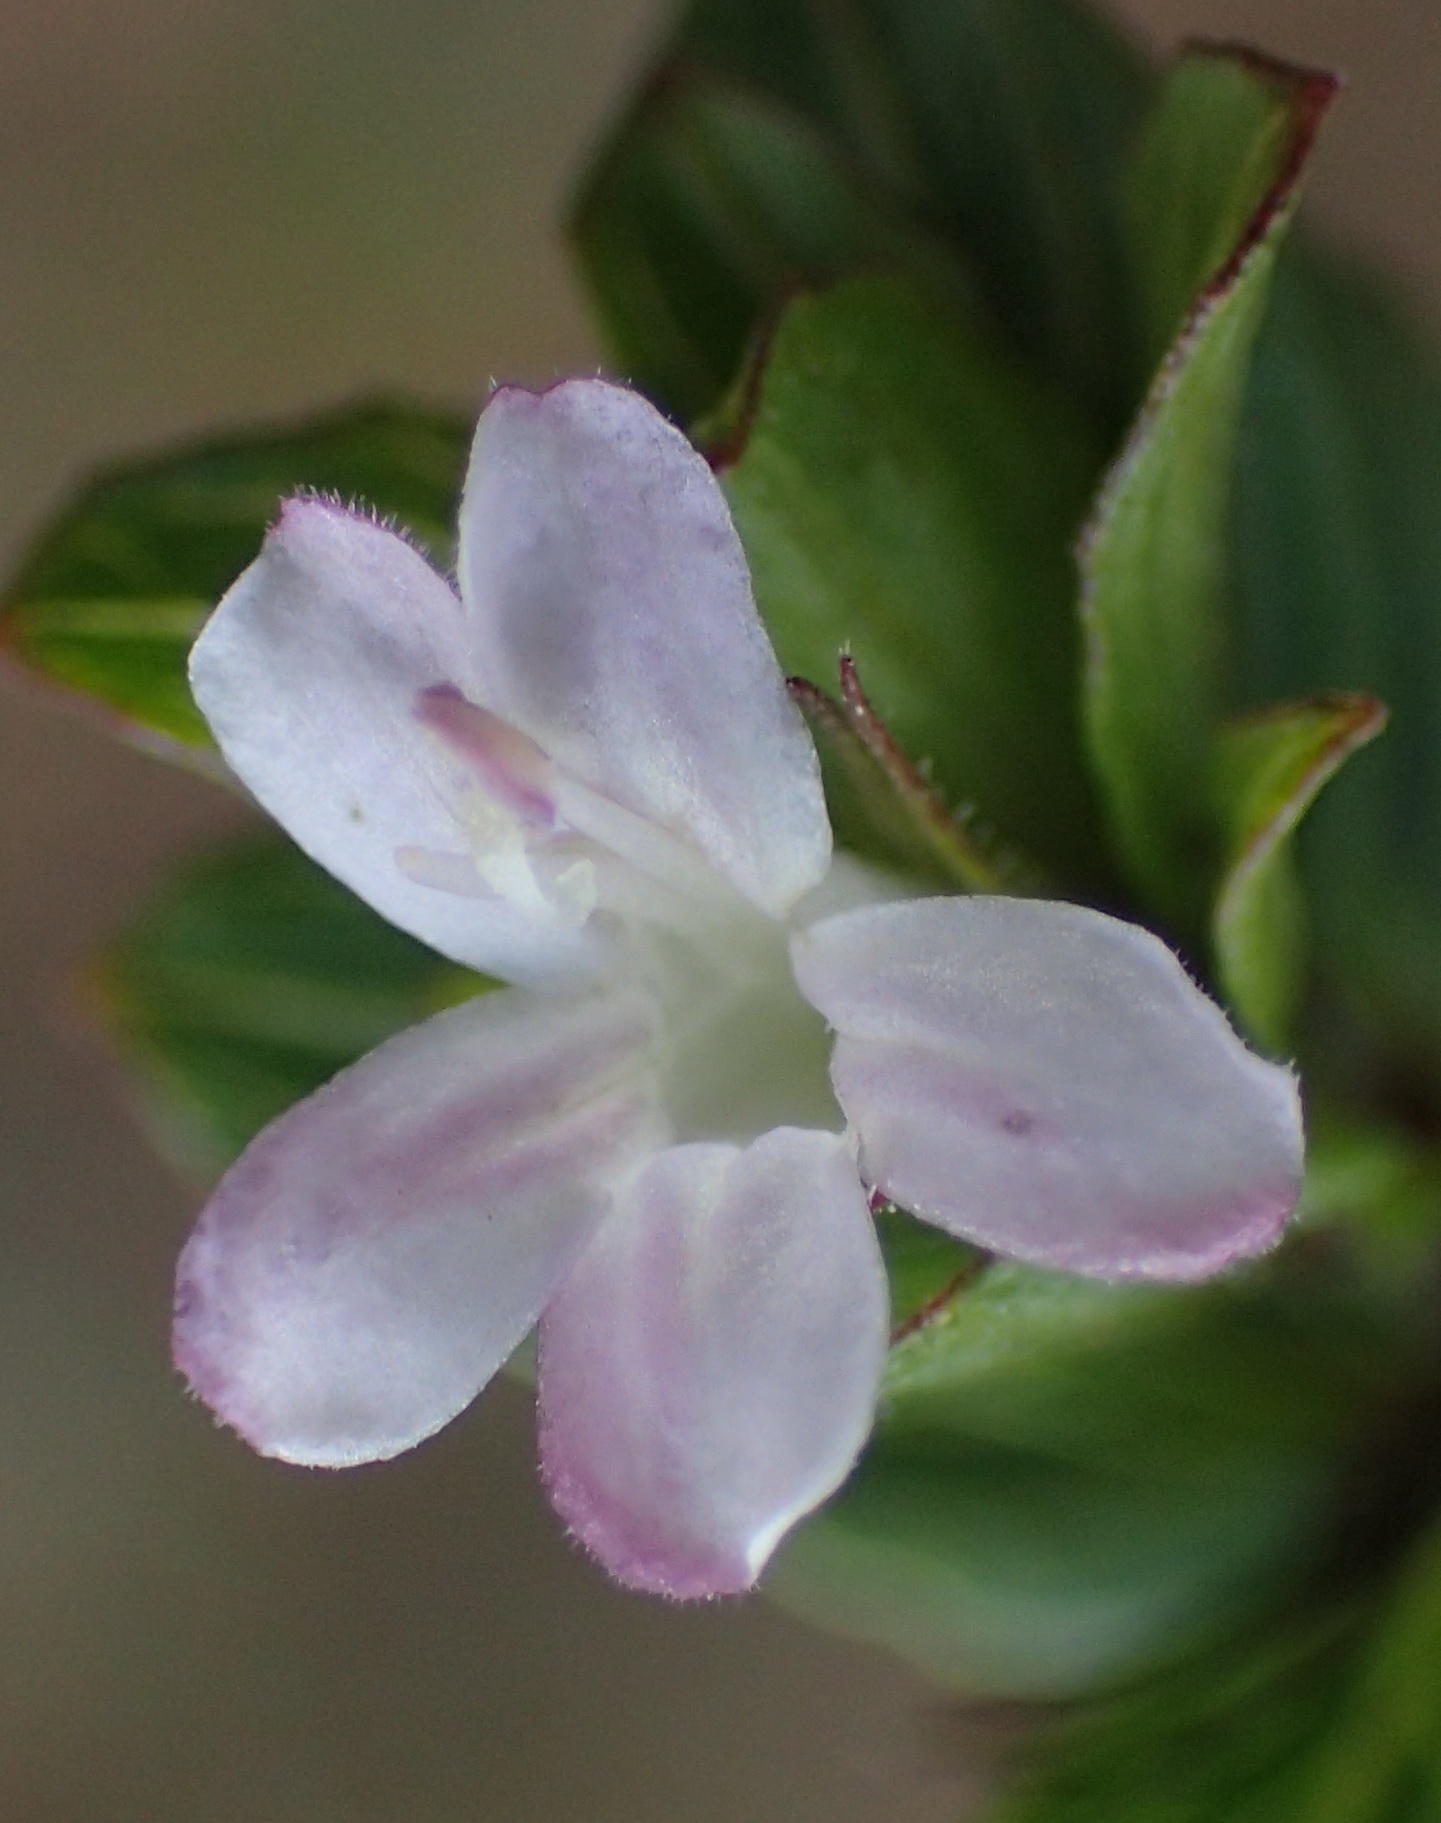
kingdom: Plantae
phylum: Tracheophyta
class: Magnoliopsida
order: Lamiales
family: Acanthaceae
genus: Dyschoriste
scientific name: Dyschoriste radicans
